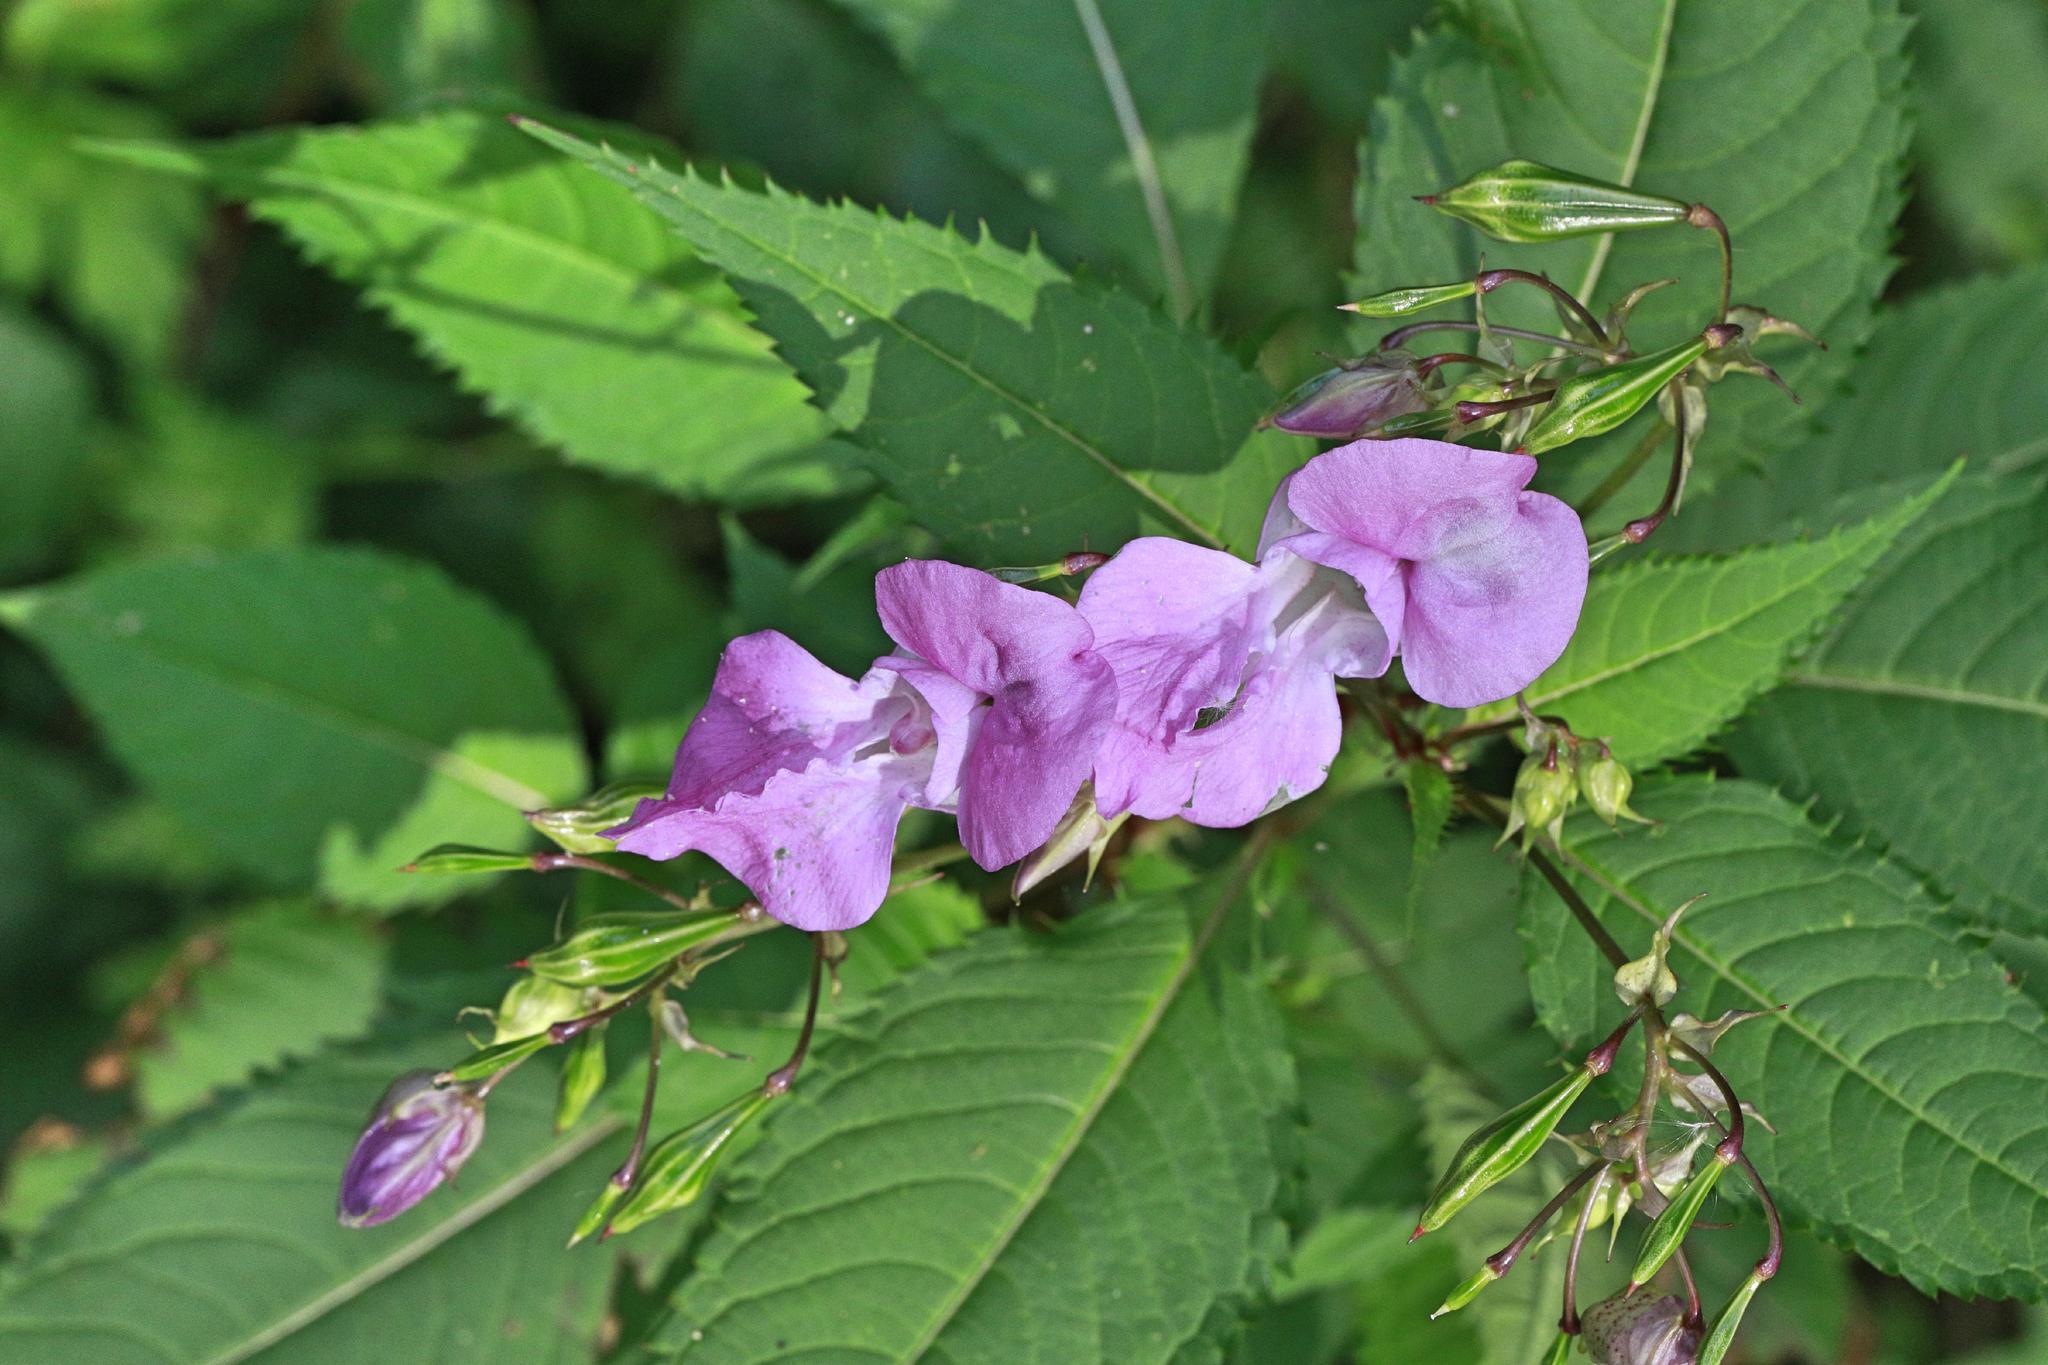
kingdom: Plantae
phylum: Tracheophyta
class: Magnoliopsida
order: Ericales
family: Balsaminaceae
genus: Impatiens
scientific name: Impatiens glandulifera
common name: Himalayan balsam
